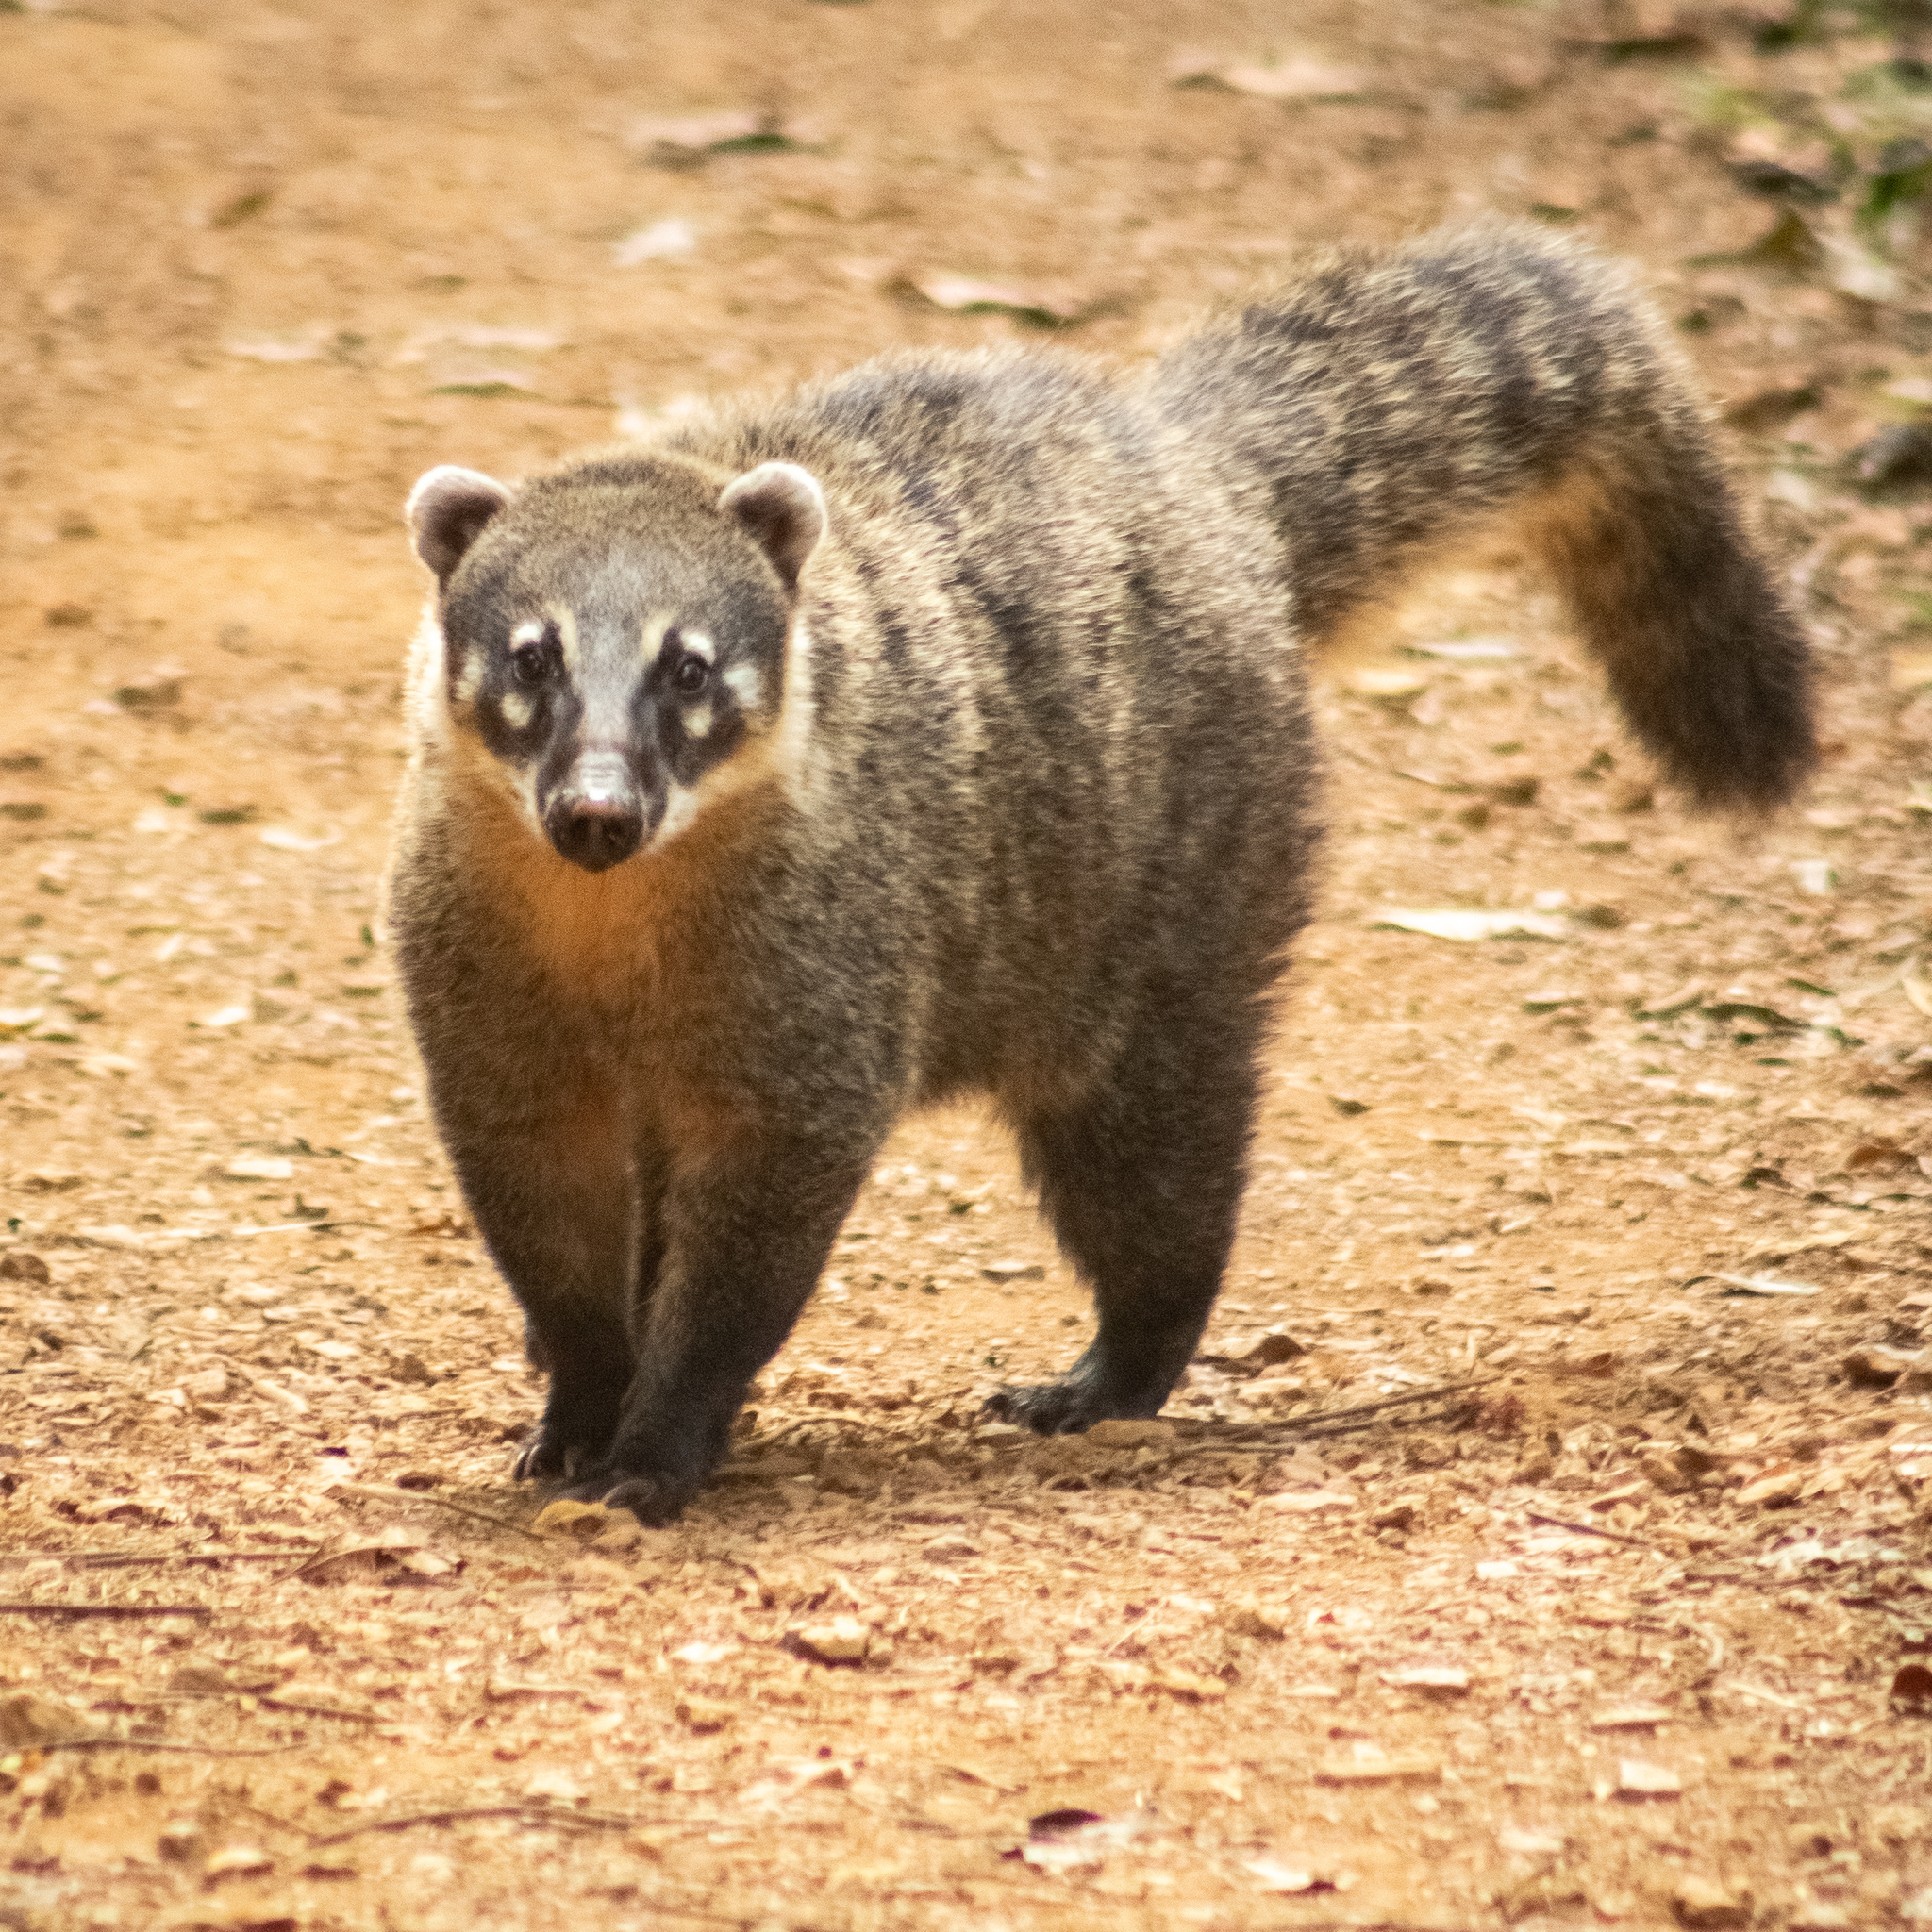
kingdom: Animalia
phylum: Chordata
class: Mammalia
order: Carnivora
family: Procyonidae
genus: Nasua
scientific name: Nasua nasua
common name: South american coati
